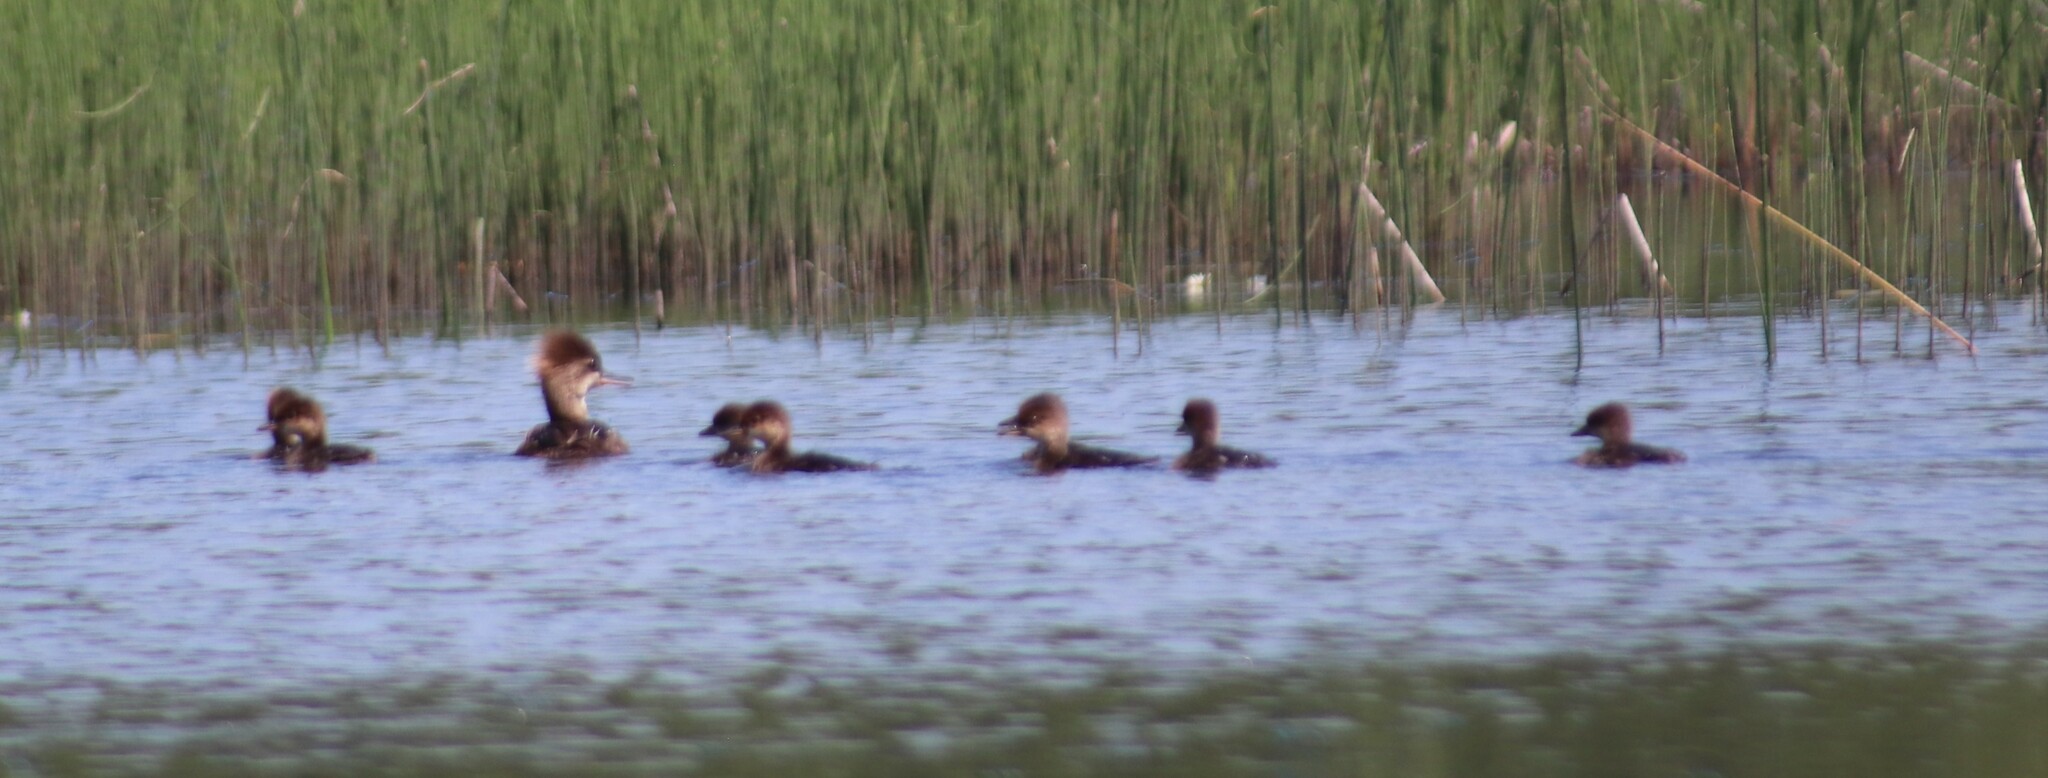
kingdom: Animalia
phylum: Chordata
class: Aves
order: Anseriformes
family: Anatidae
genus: Lophodytes
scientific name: Lophodytes cucullatus
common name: Hooded merganser
